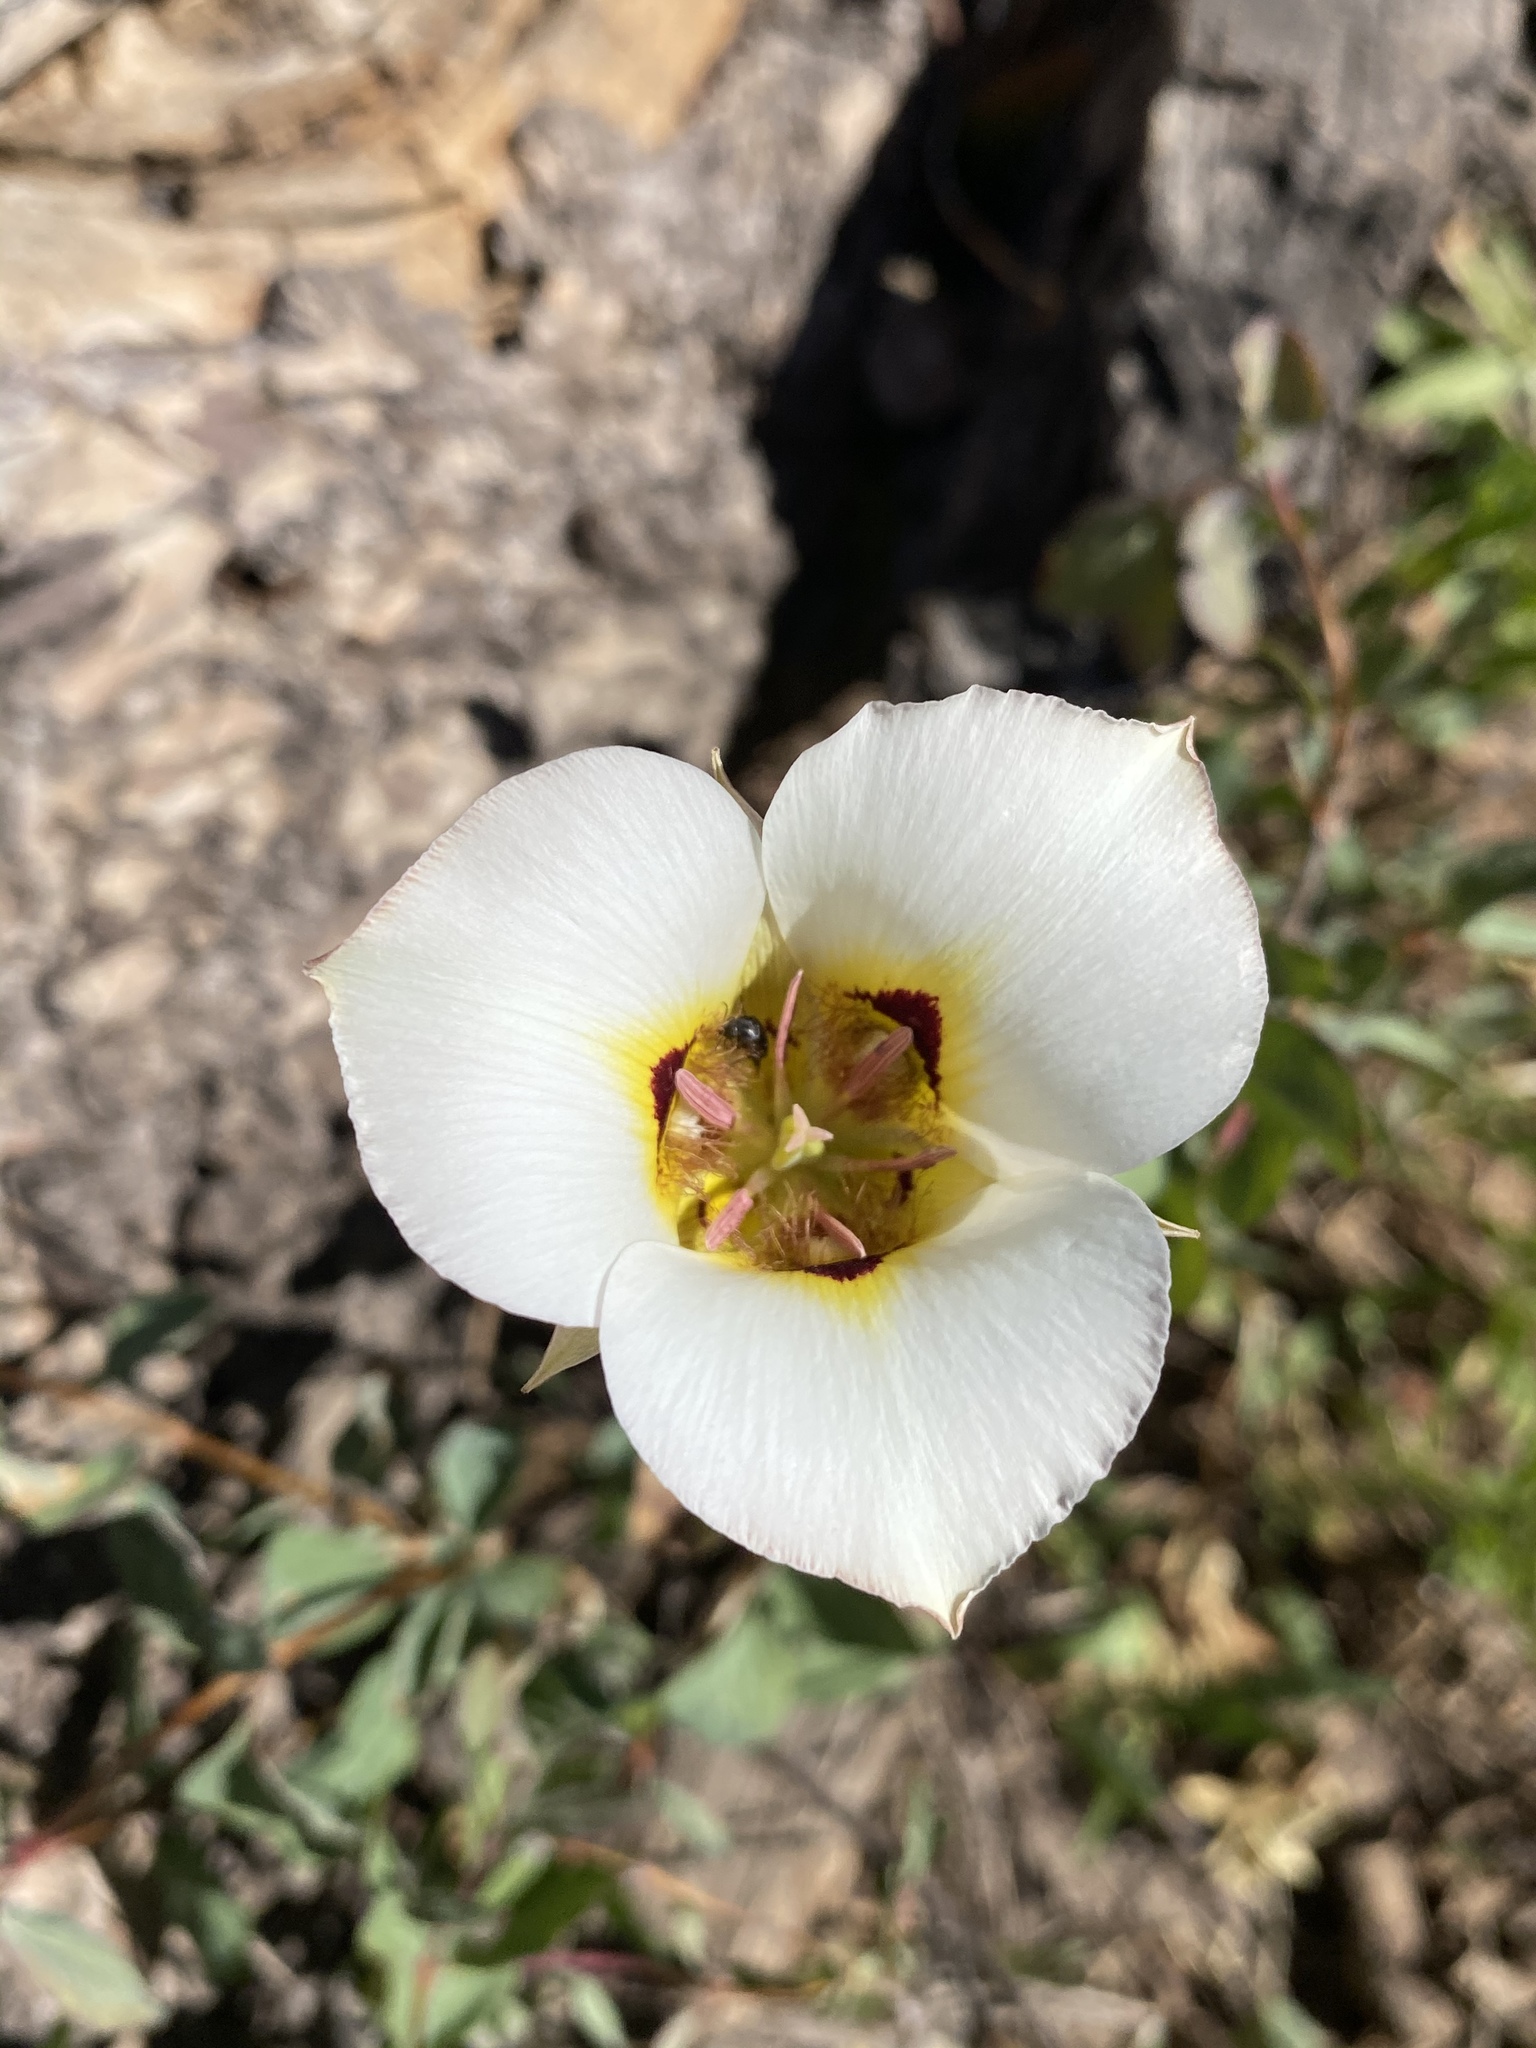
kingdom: Plantae
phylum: Tracheophyta
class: Liliopsida
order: Liliales
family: Liliaceae
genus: Calochortus
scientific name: Calochortus nuttallii
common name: Sego-lily
